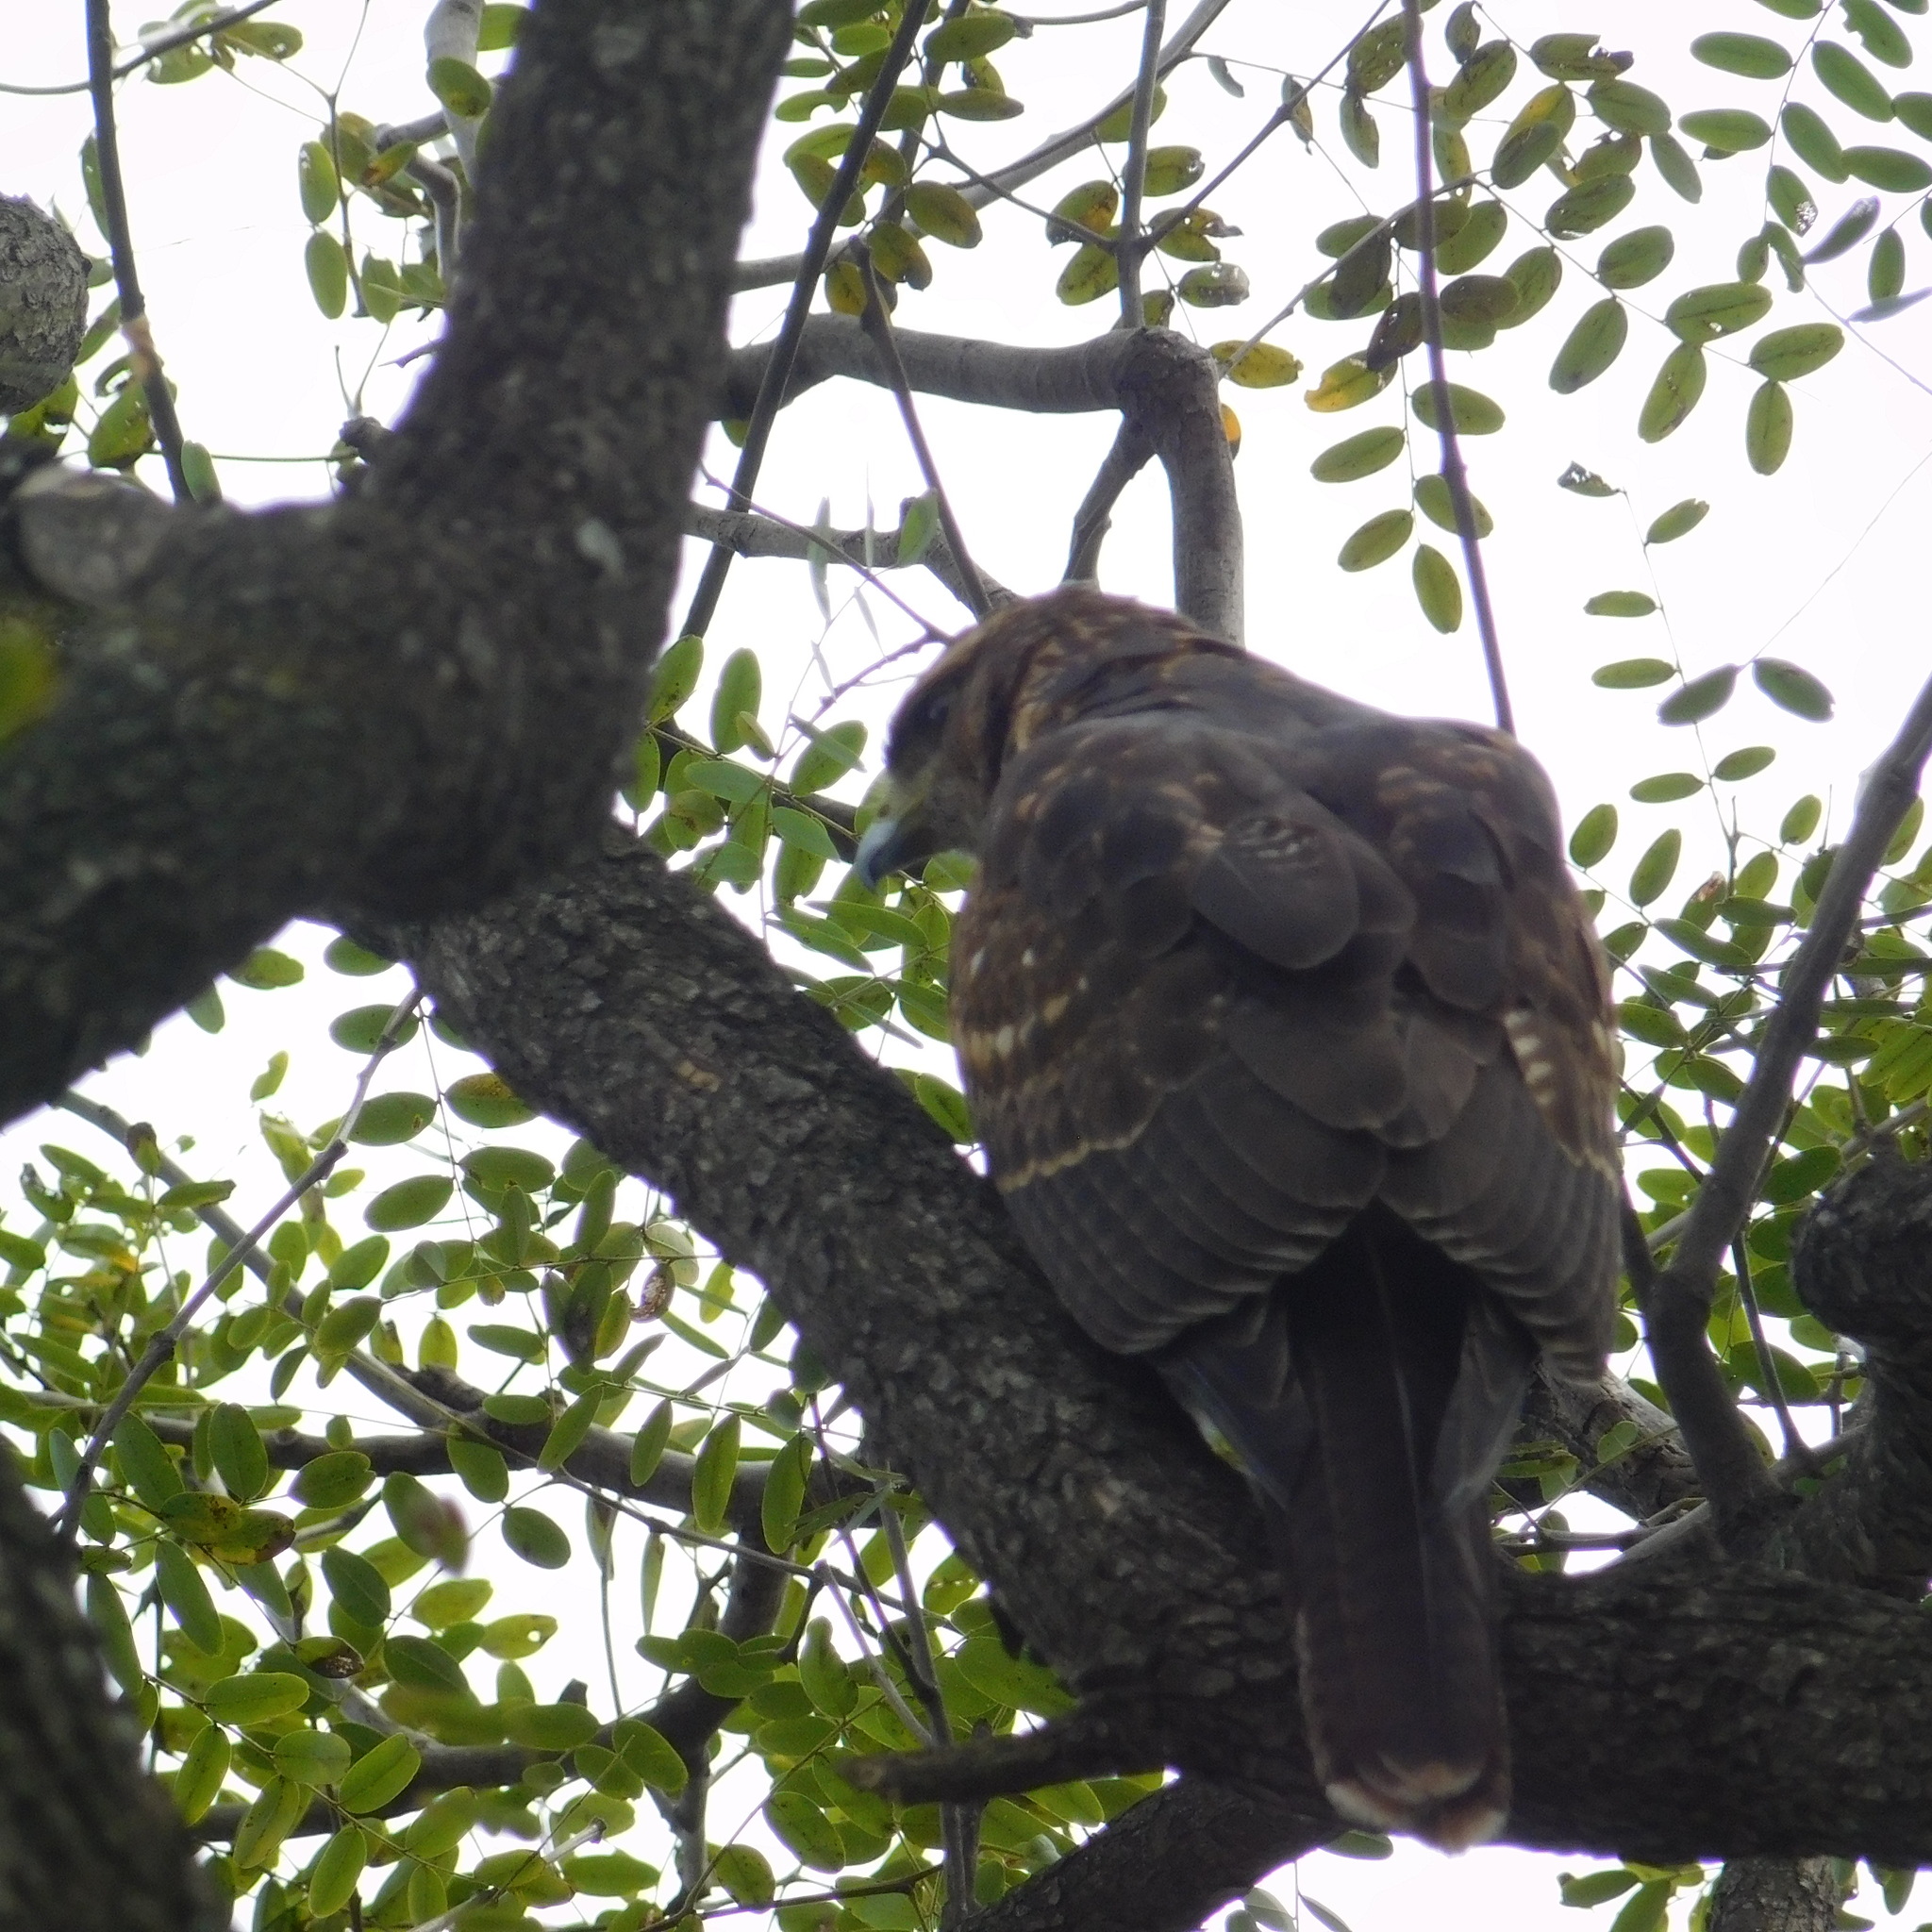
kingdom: Animalia
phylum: Chordata
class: Aves
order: Accipitriformes
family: Accipitridae
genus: Parabuteo
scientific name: Parabuteo unicinctus
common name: Harris's hawk
